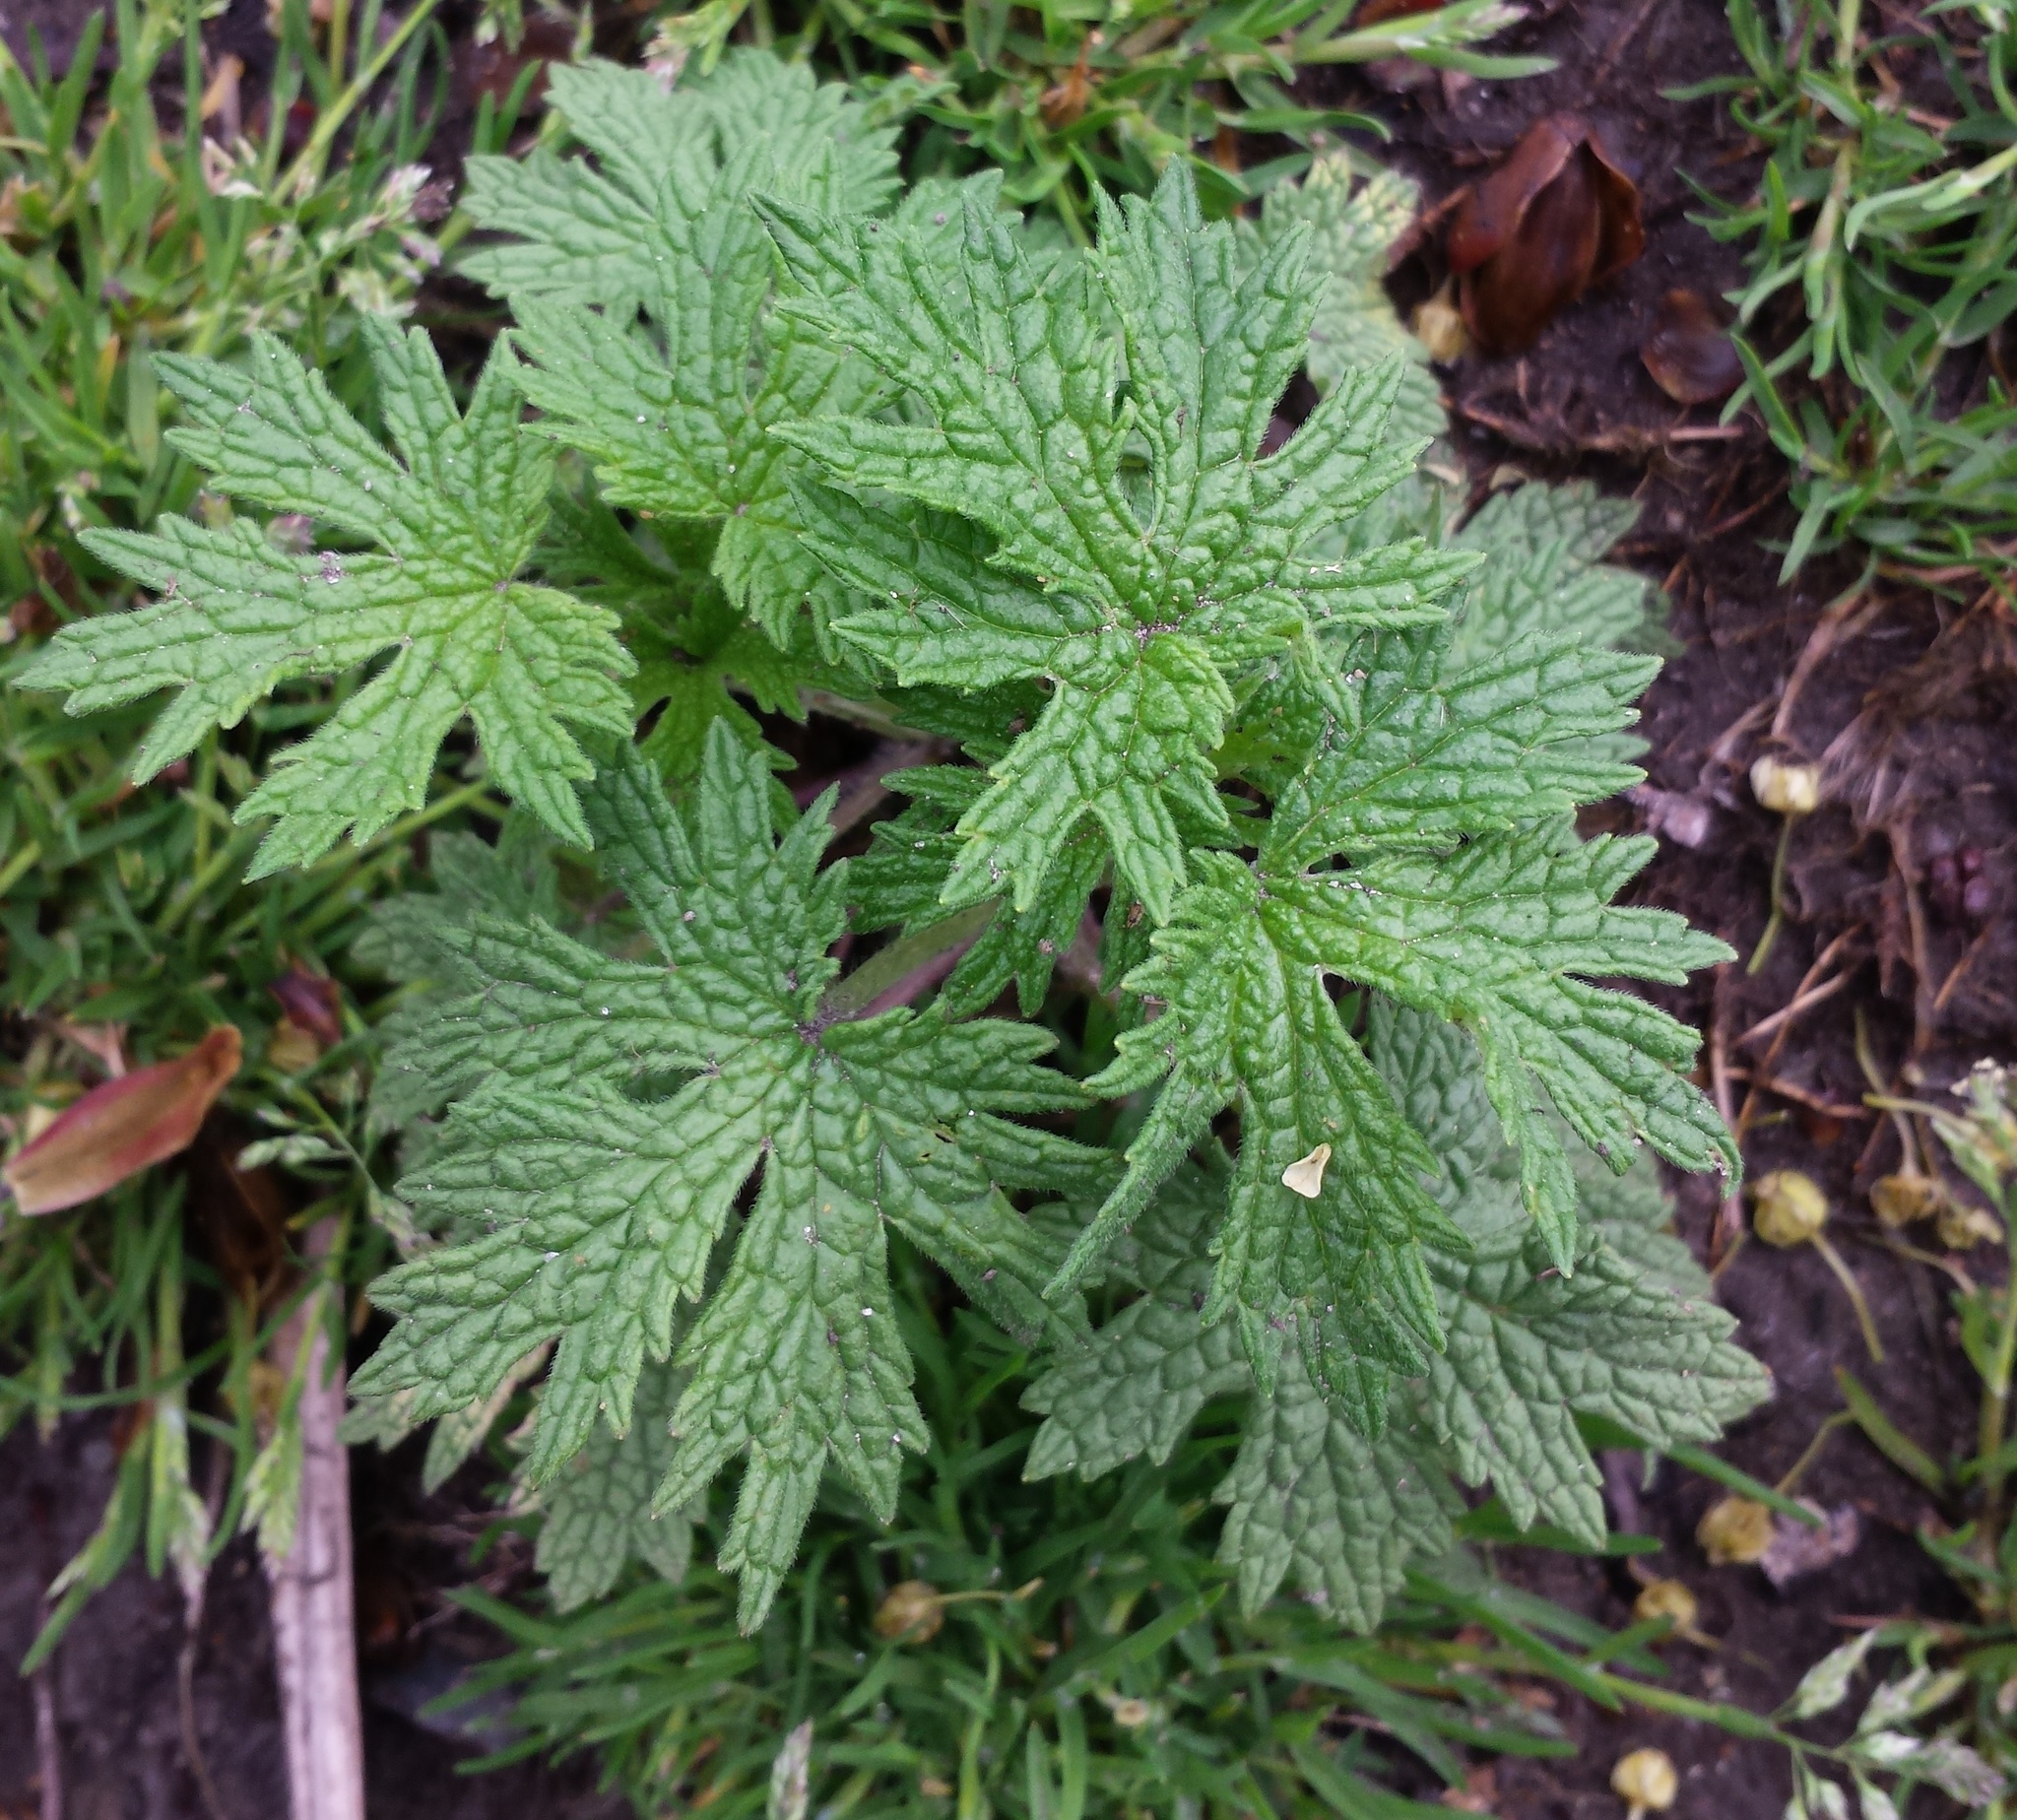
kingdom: Plantae
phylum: Tracheophyta
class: Magnoliopsida
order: Lamiales
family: Lamiaceae
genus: Leonurus
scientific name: Leonurus cardiaca
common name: Motherwort
